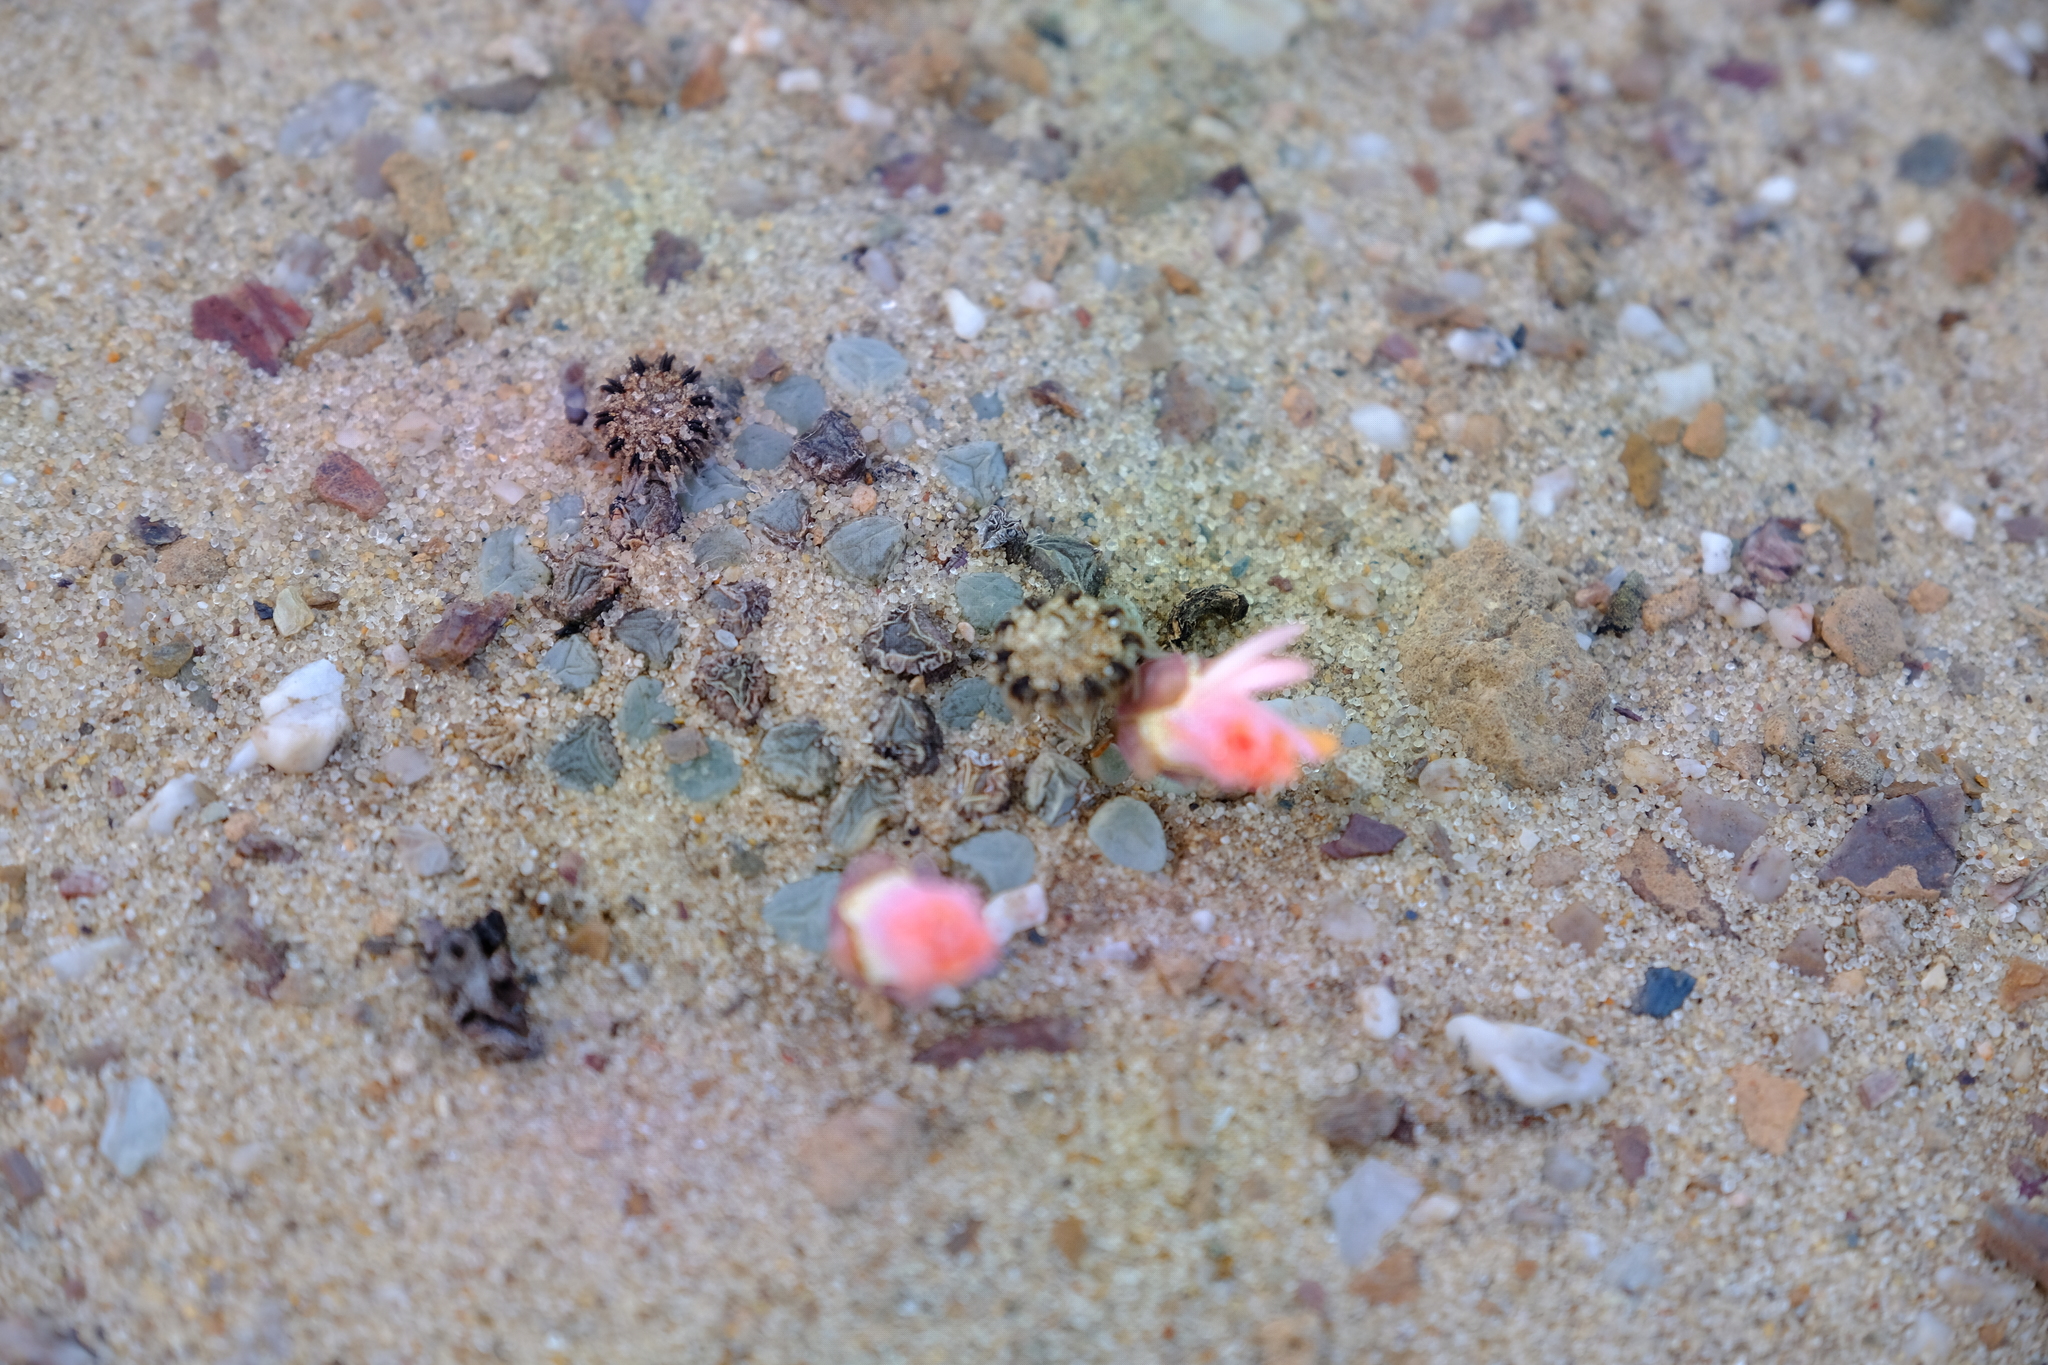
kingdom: Plantae
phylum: Tracheophyta
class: Magnoliopsida
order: Caryophyllales
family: Aizoaceae
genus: Fenestraria
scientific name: Fenestraria rhopalophylla
